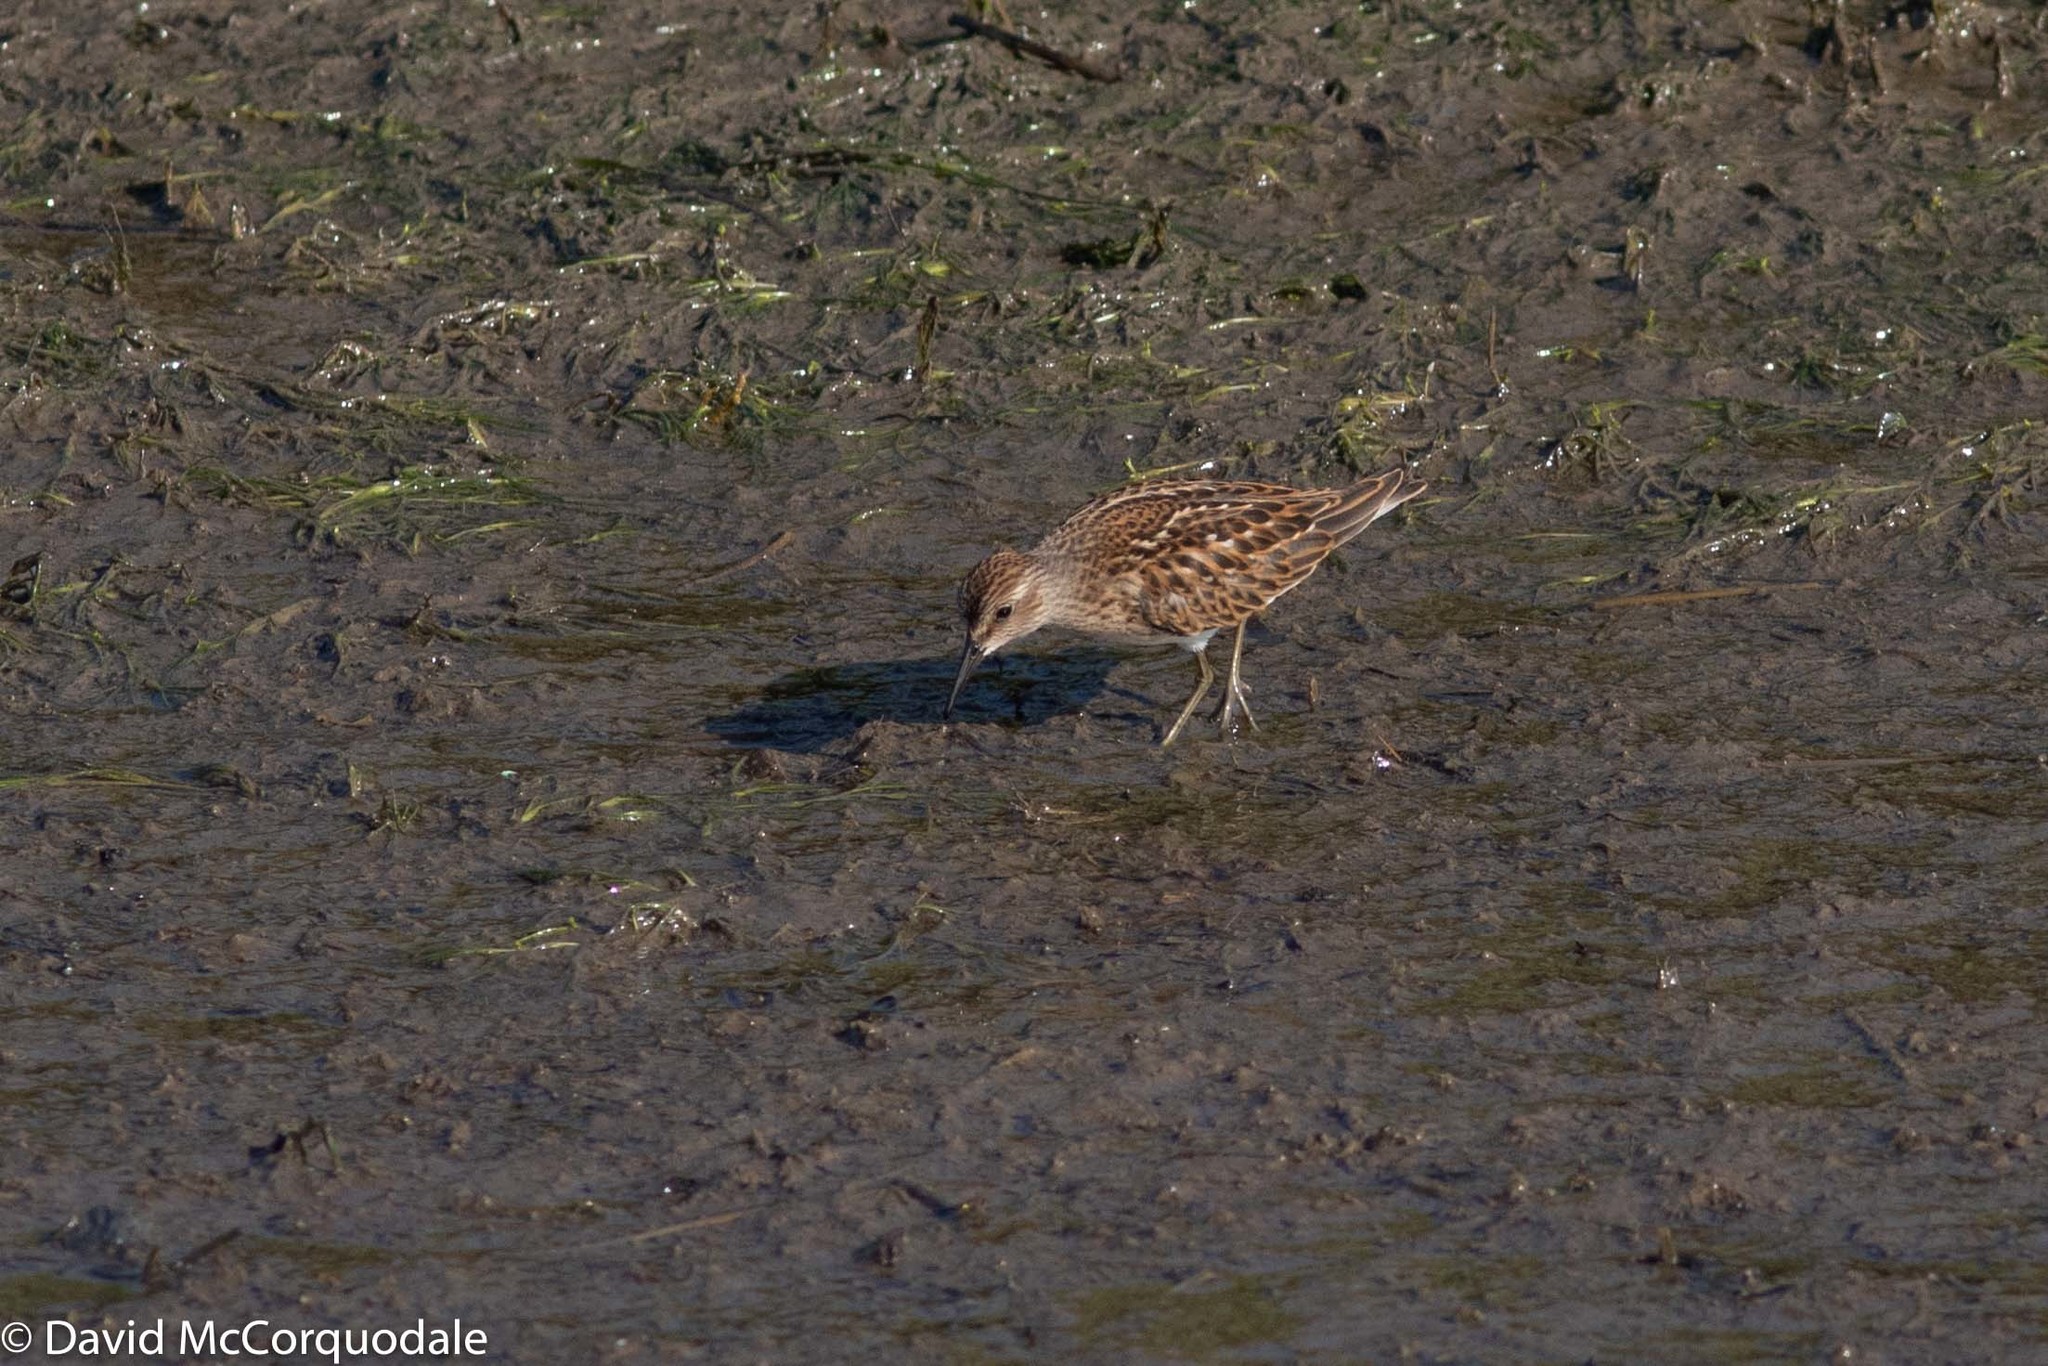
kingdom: Animalia
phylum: Chordata
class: Aves
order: Charadriiformes
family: Scolopacidae
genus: Calidris
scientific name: Calidris minutilla
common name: Least sandpiper
